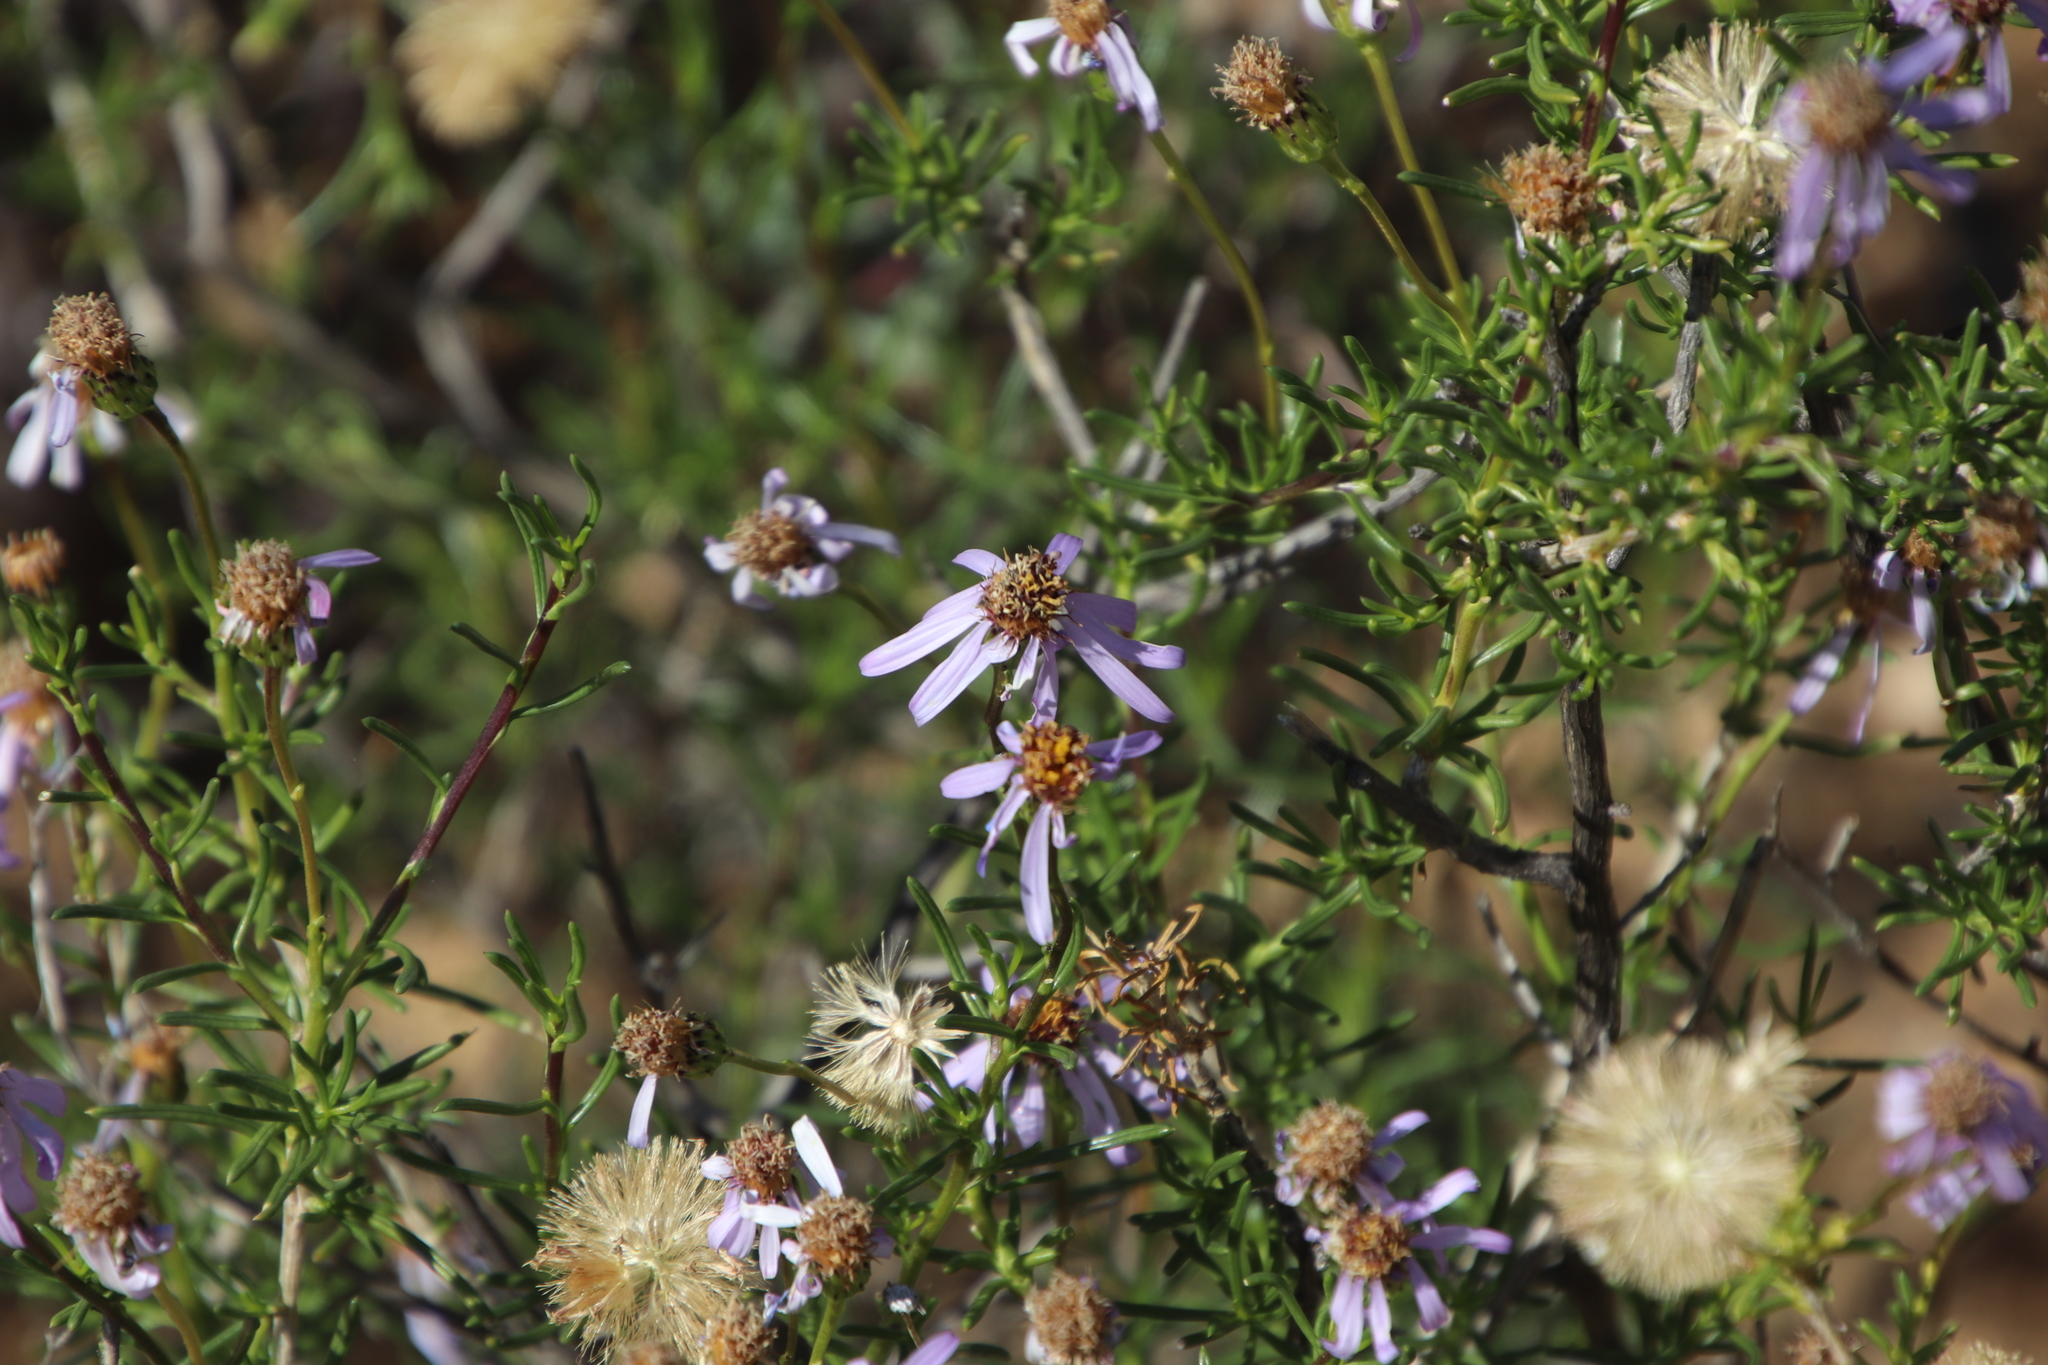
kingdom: Plantae
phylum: Tracheophyta
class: Magnoliopsida
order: Asterales
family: Asteraceae
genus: Felicia
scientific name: Felicia filifolia
